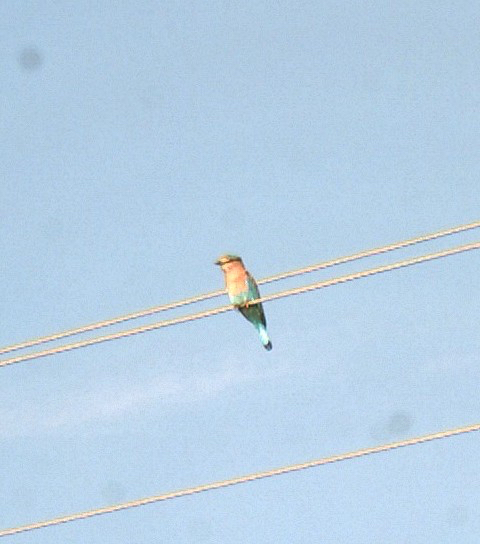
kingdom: Animalia
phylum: Chordata
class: Aves
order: Coraciiformes
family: Coraciidae
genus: Coracias
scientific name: Coracias benghalensis
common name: Indian roller
